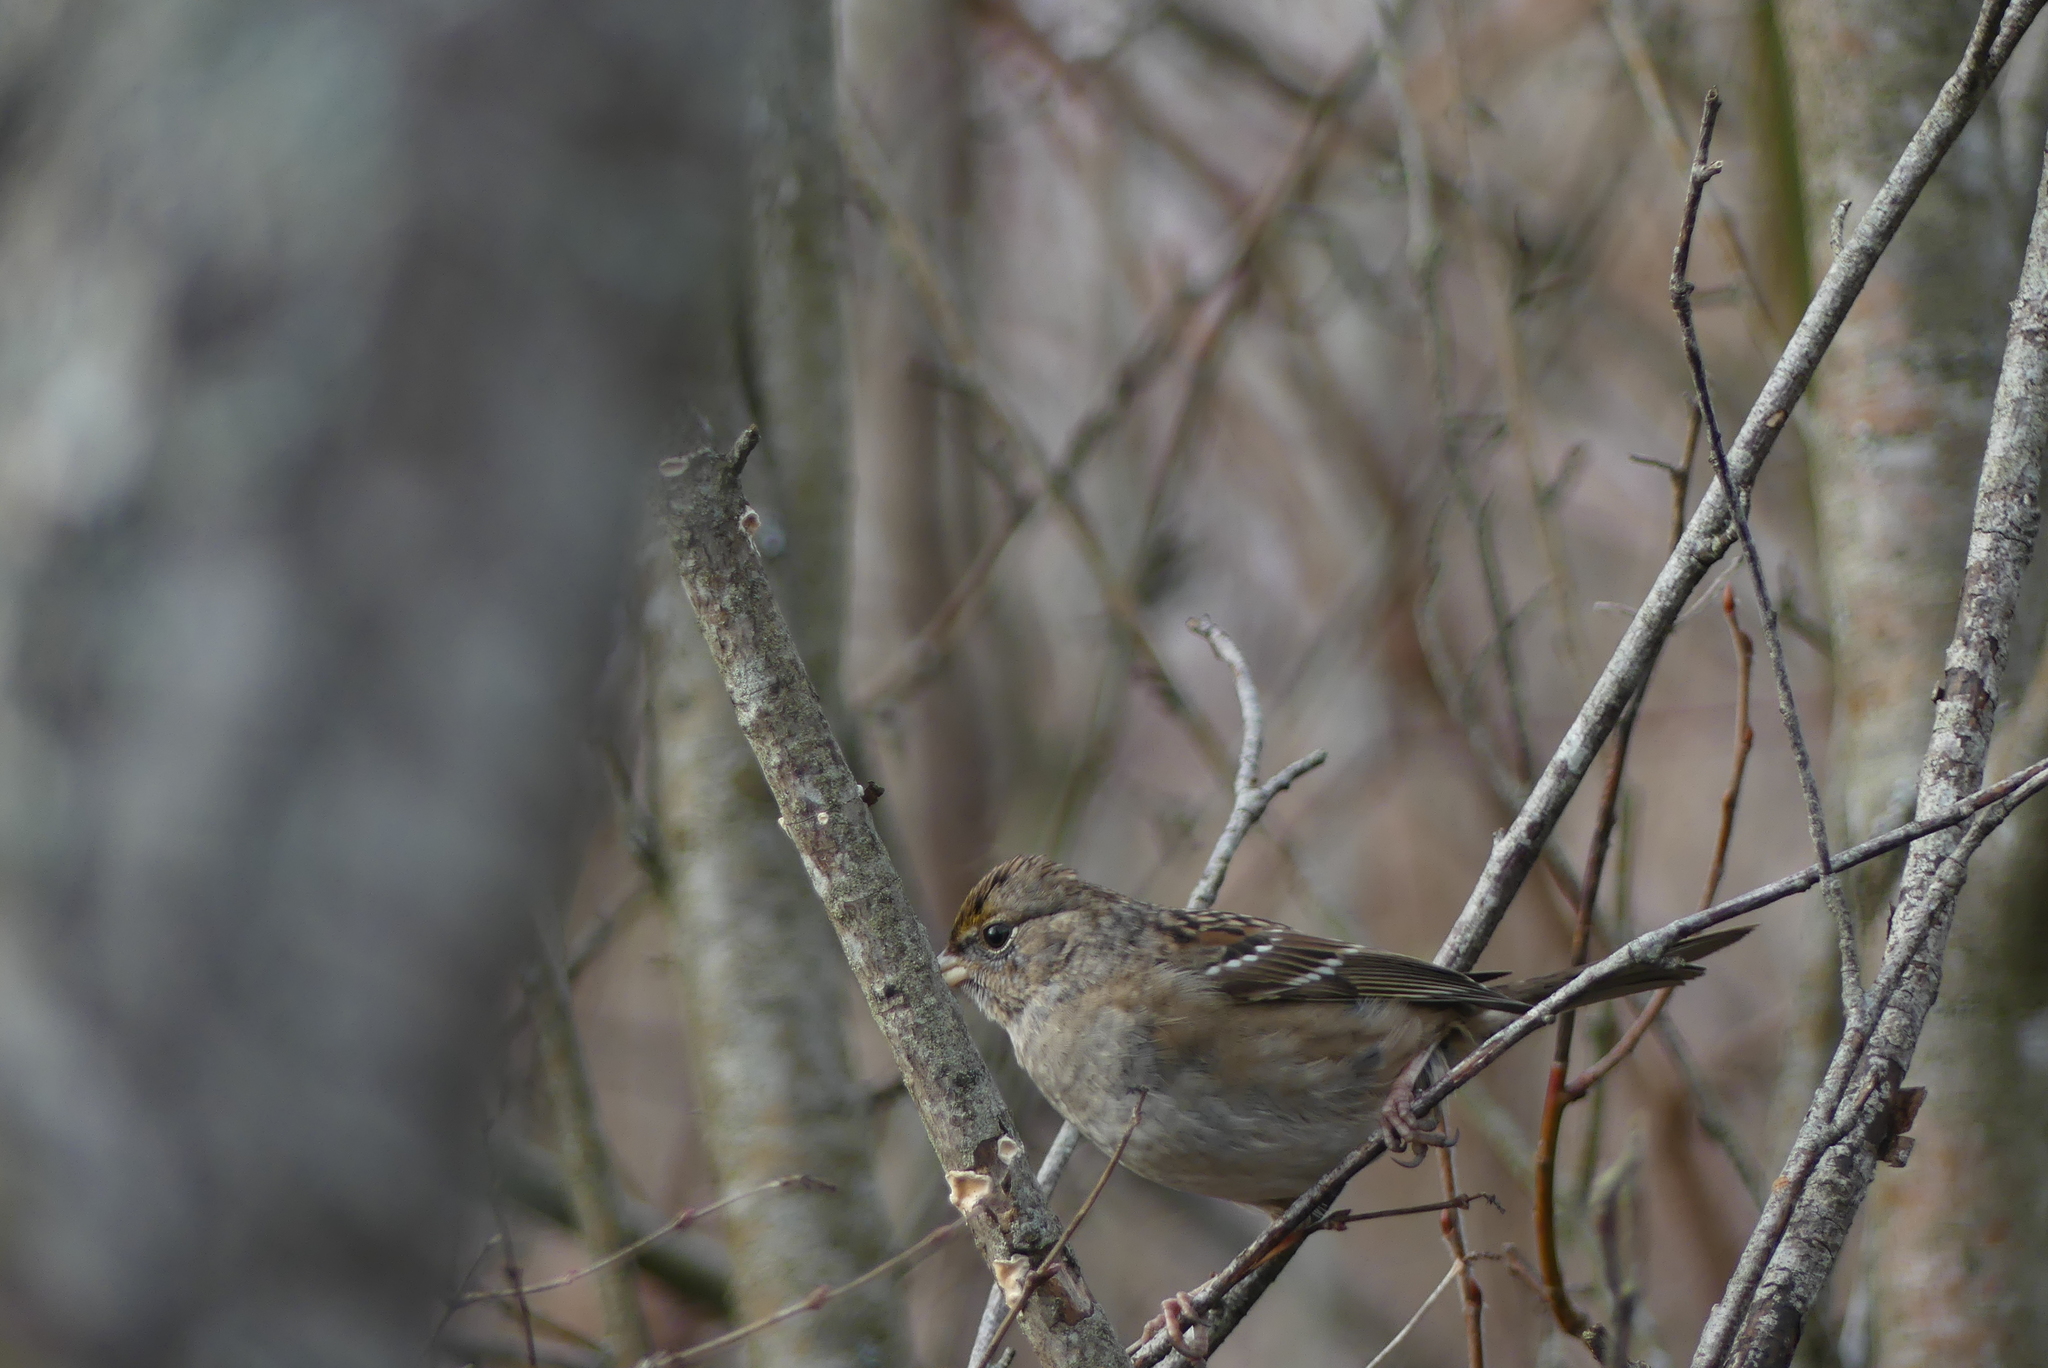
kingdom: Animalia
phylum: Chordata
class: Aves
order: Passeriformes
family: Passerellidae
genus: Zonotrichia
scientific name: Zonotrichia atricapilla
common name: Golden-crowned sparrow
